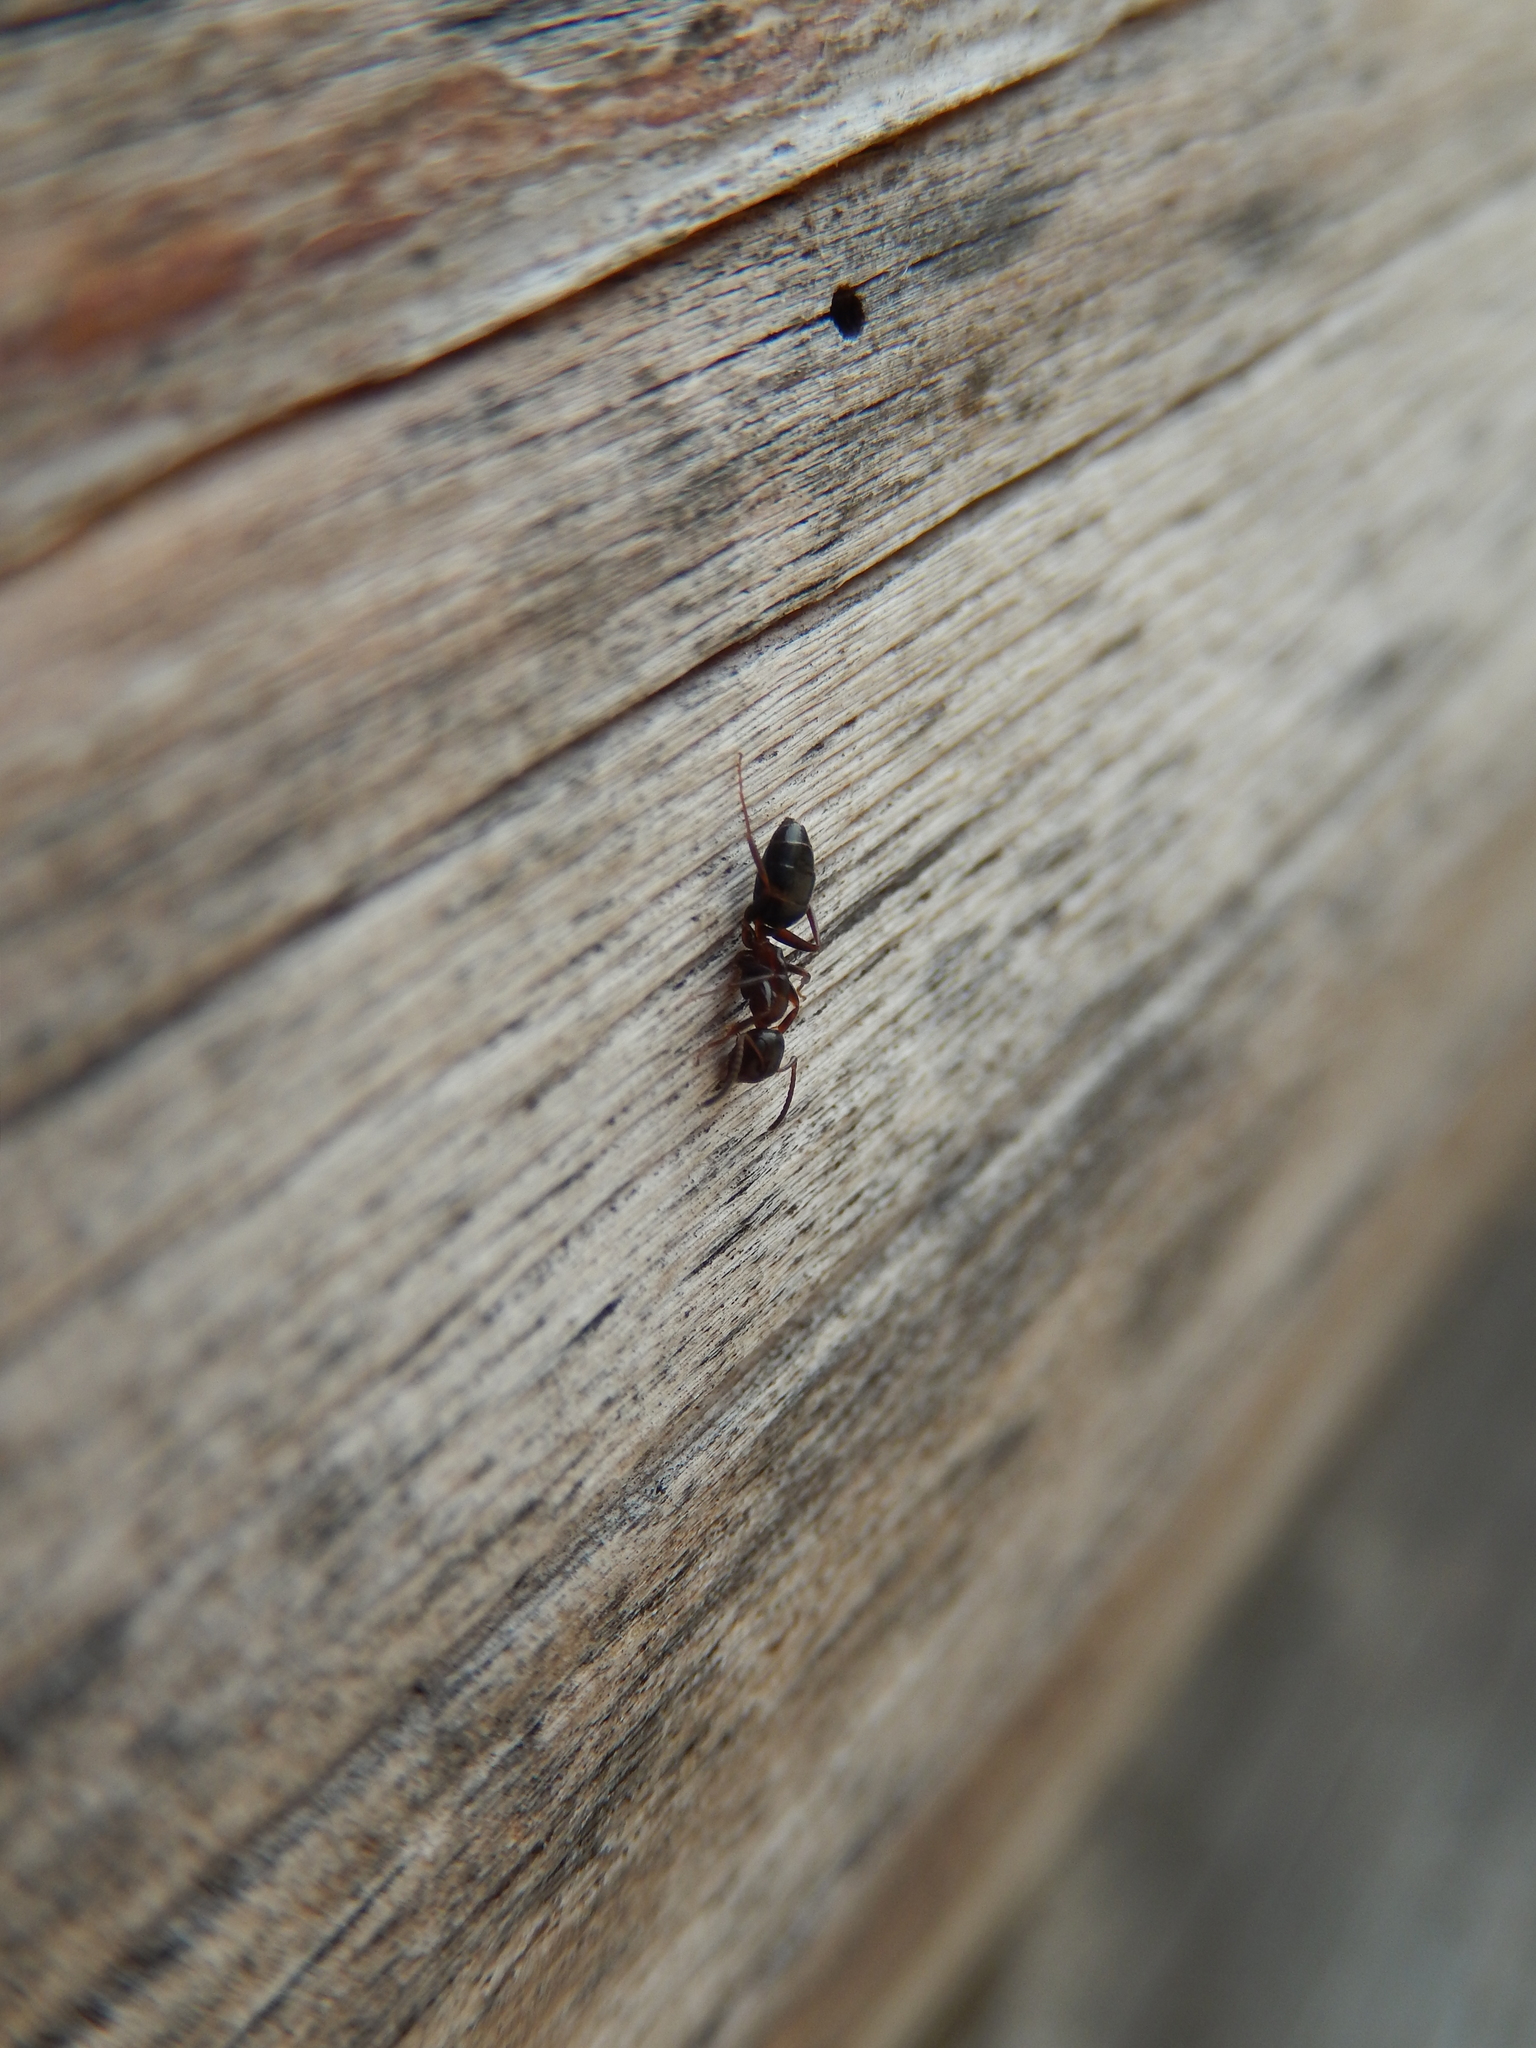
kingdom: Animalia
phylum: Arthropoda
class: Insecta
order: Hymenoptera
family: Formicidae
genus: Camponotus
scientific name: Camponotus truncatus
